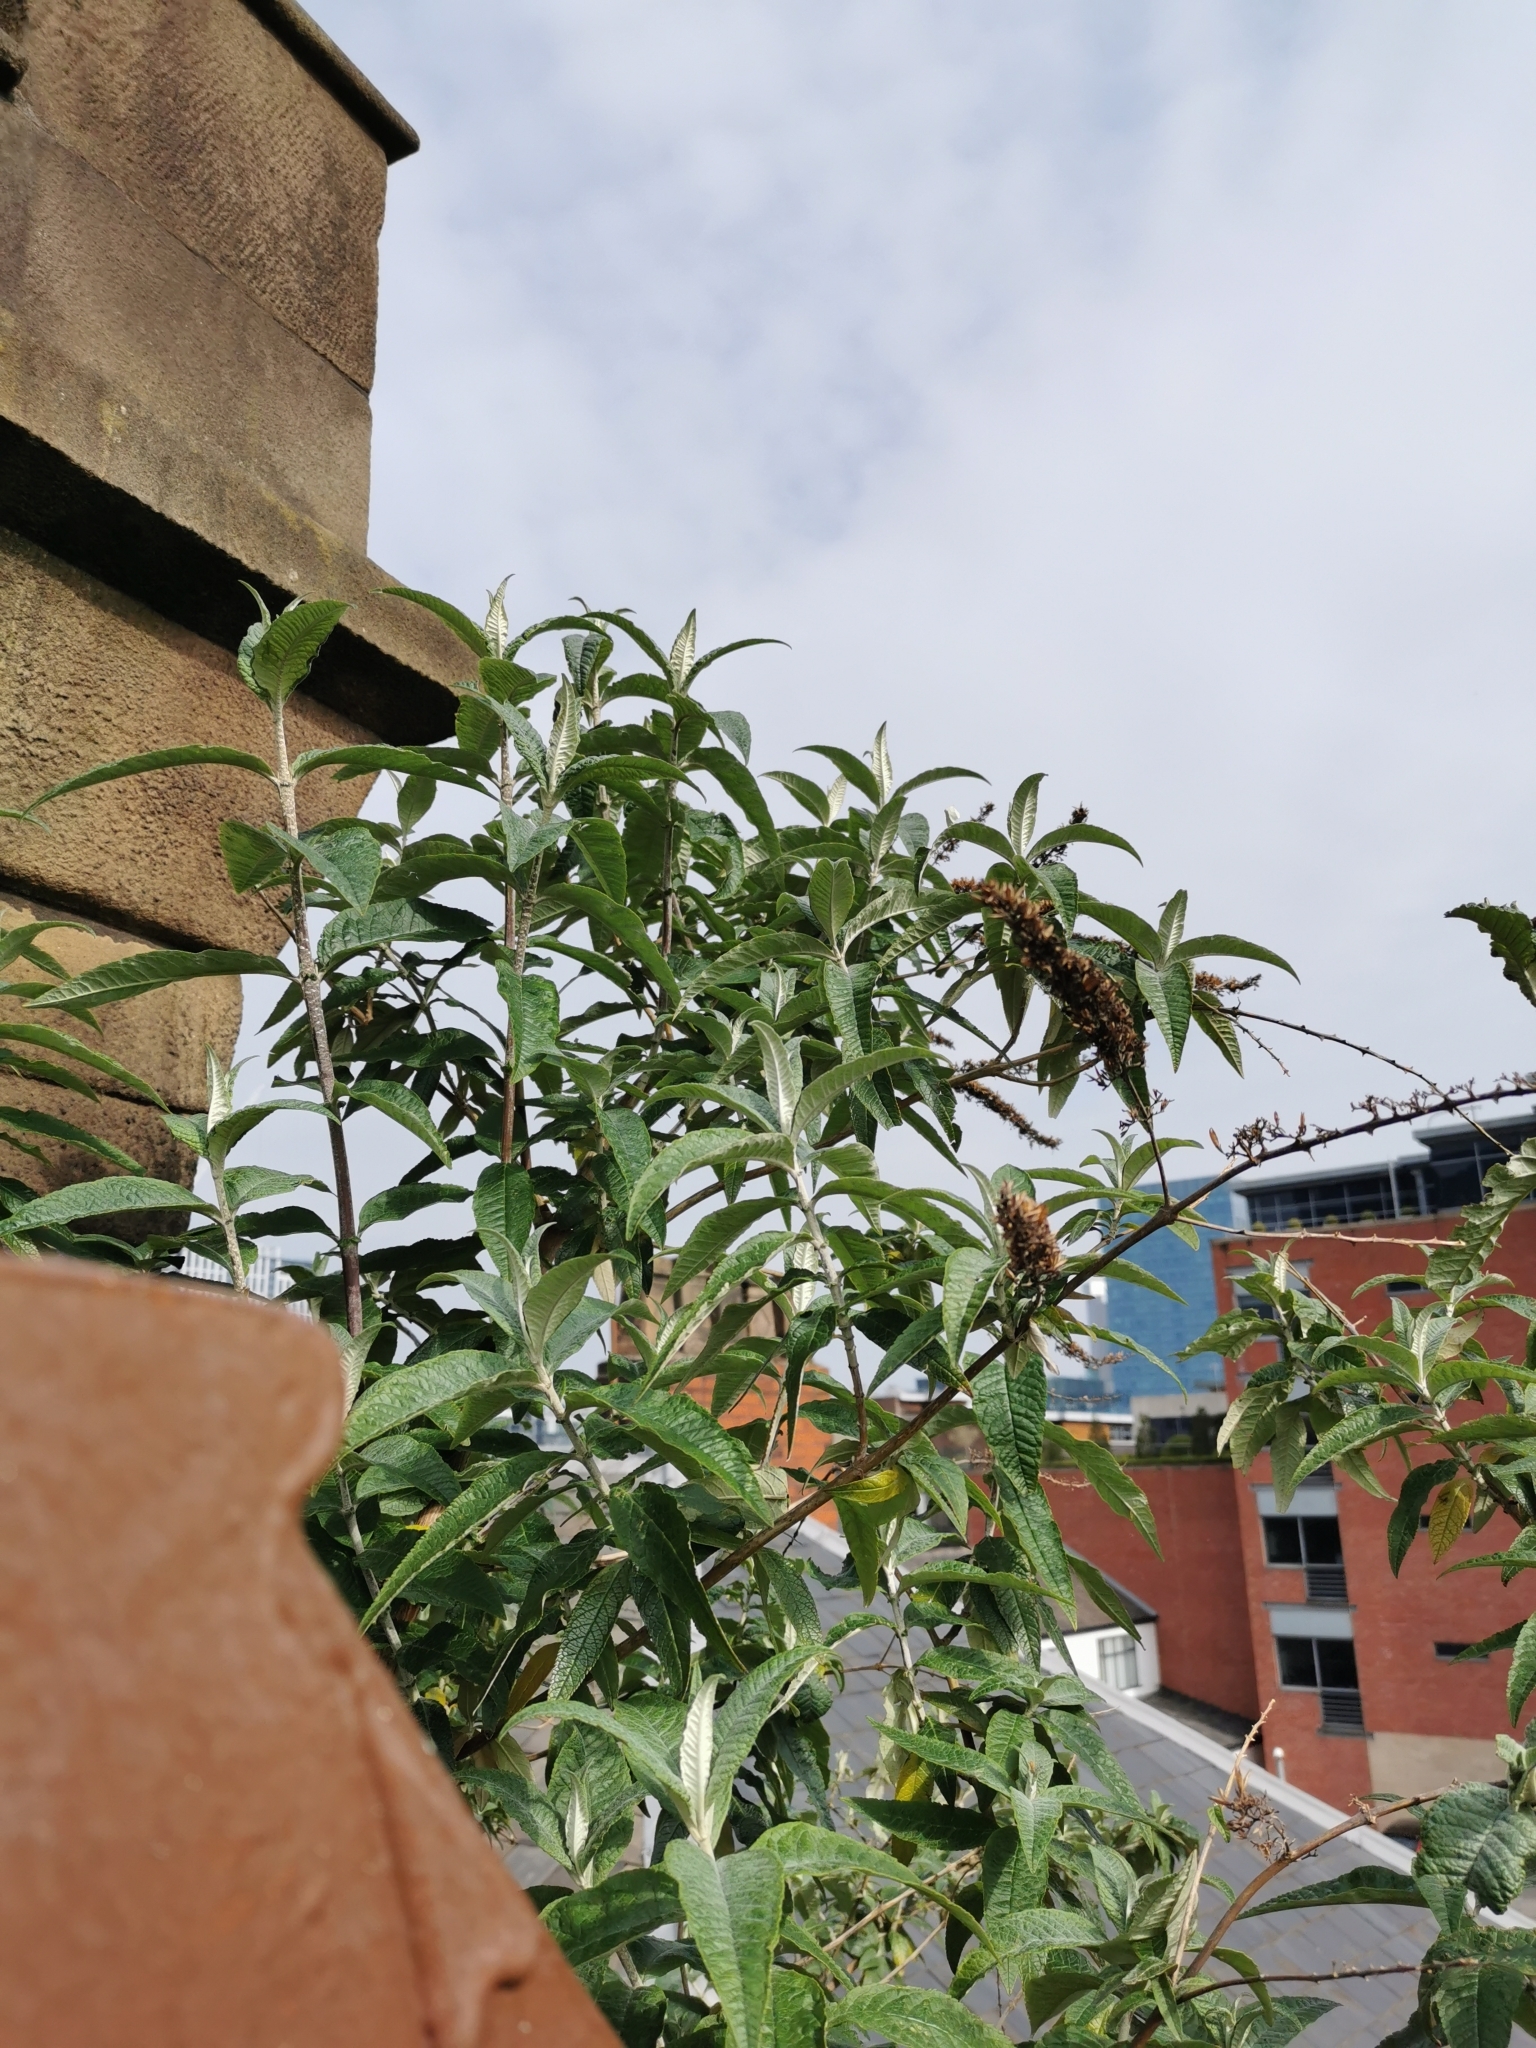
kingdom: Plantae
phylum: Tracheophyta
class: Magnoliopsida
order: Lamiales
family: Scrophulariaceae
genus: Buddleja
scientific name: Buddleja davidii
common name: Butterfly-bush
